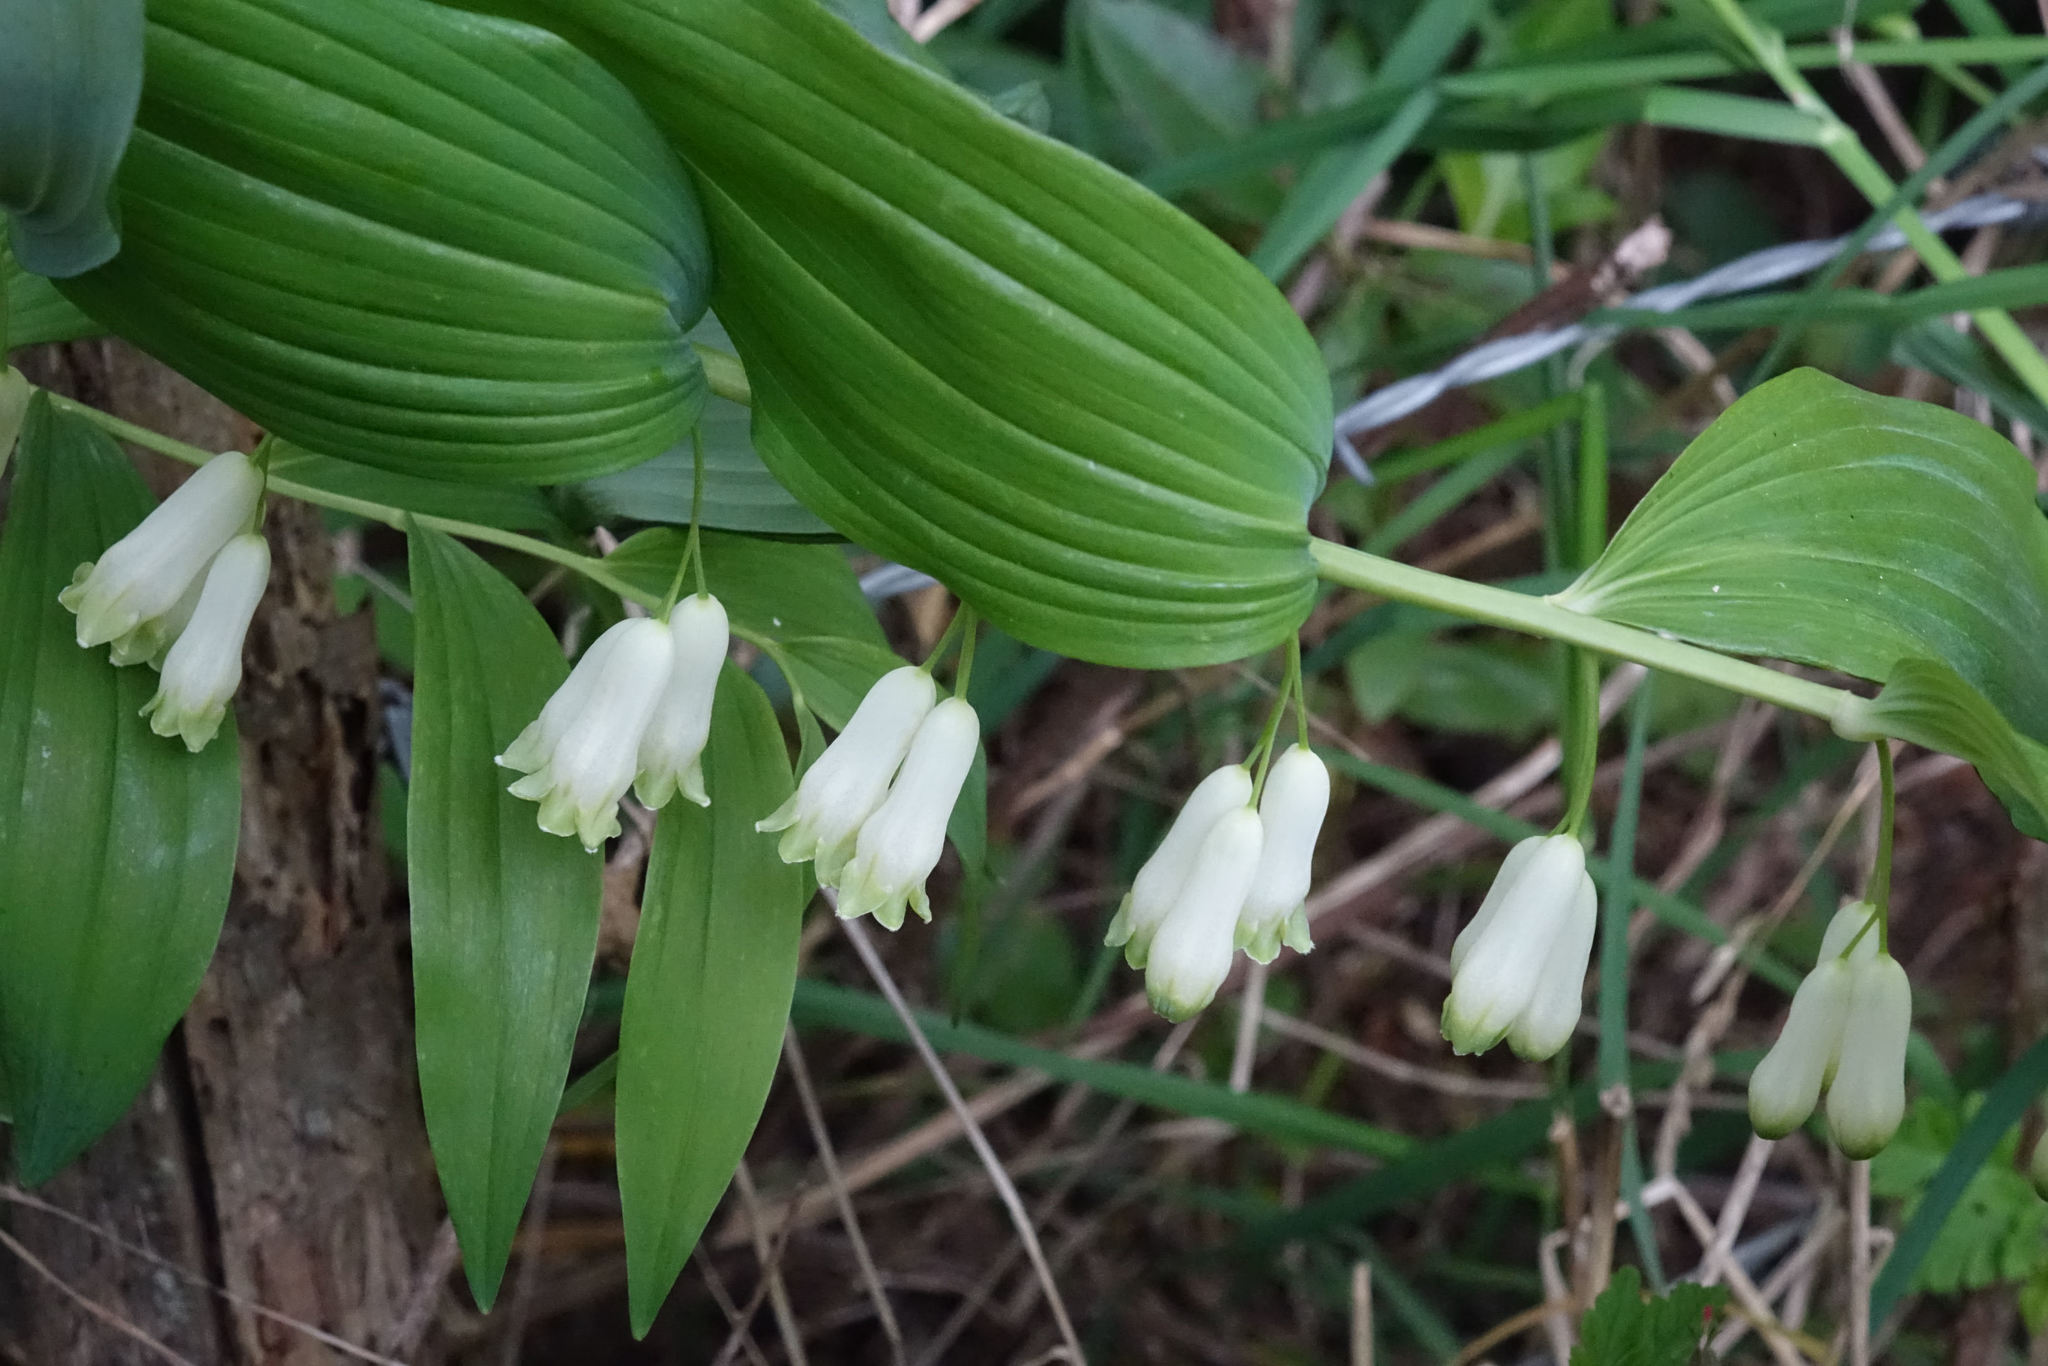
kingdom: Plantae
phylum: Tracheophyta
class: Liliopsida
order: Asparagales
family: Asparagaceae
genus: Polygonatum
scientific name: Polygonatum hybridum
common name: Garden solomon's-seal
